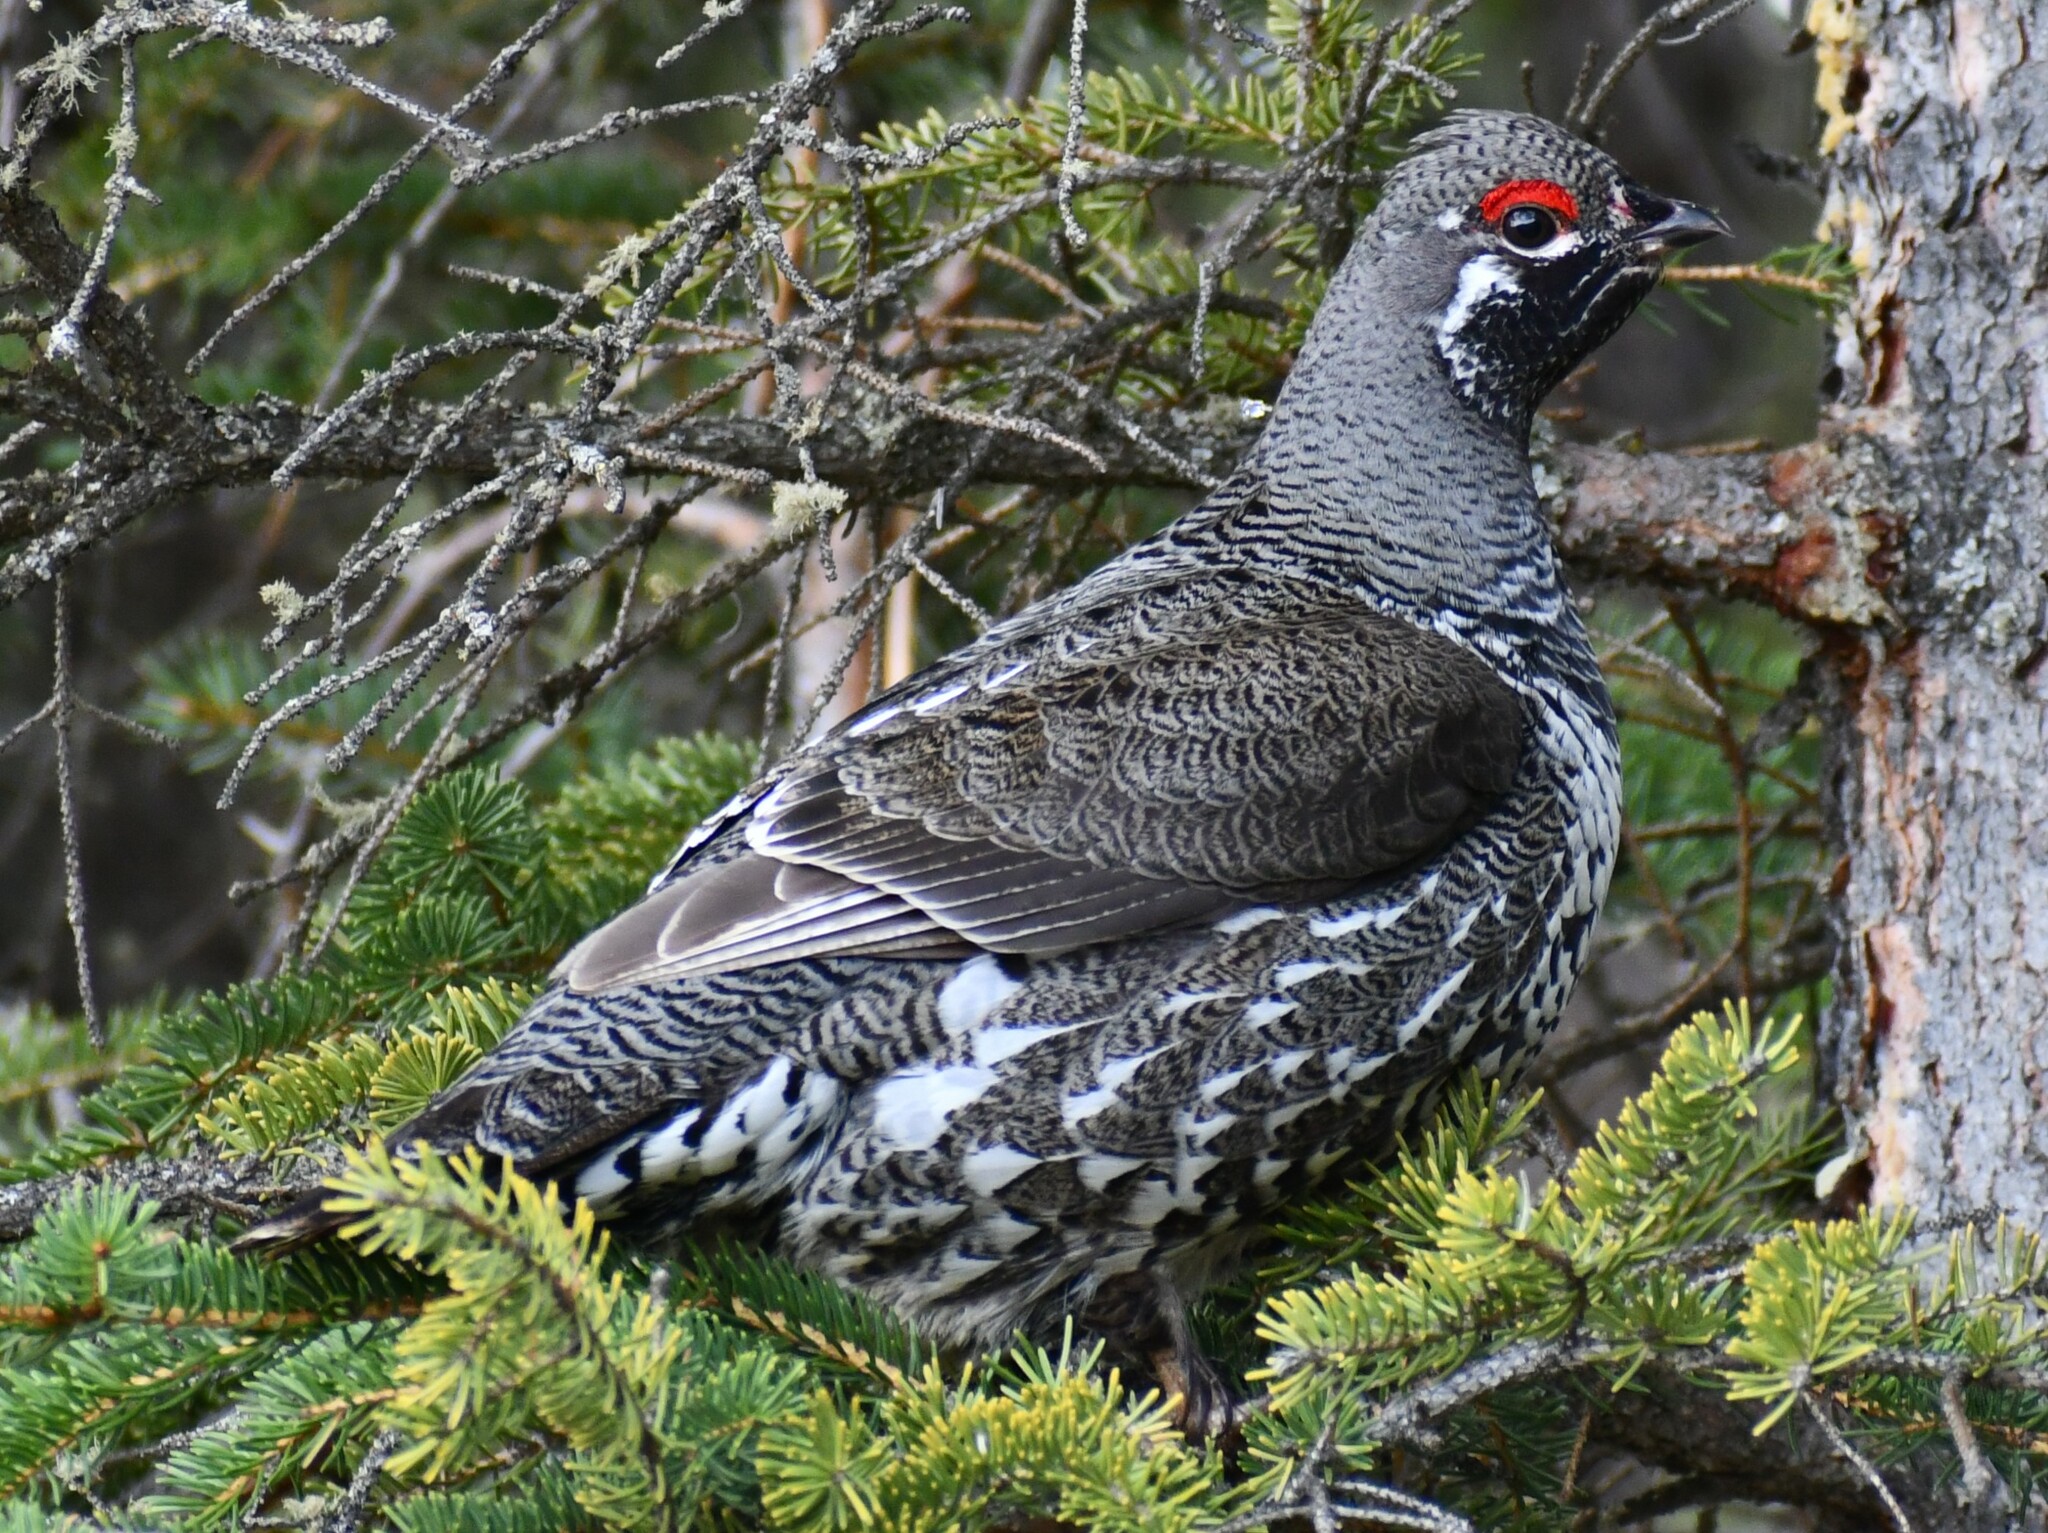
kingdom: Animalia
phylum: Chordata
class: Aves
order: Galliformes
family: Phasianidae
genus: Canachites
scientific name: Canachites canadensis
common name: Spruce grouse
